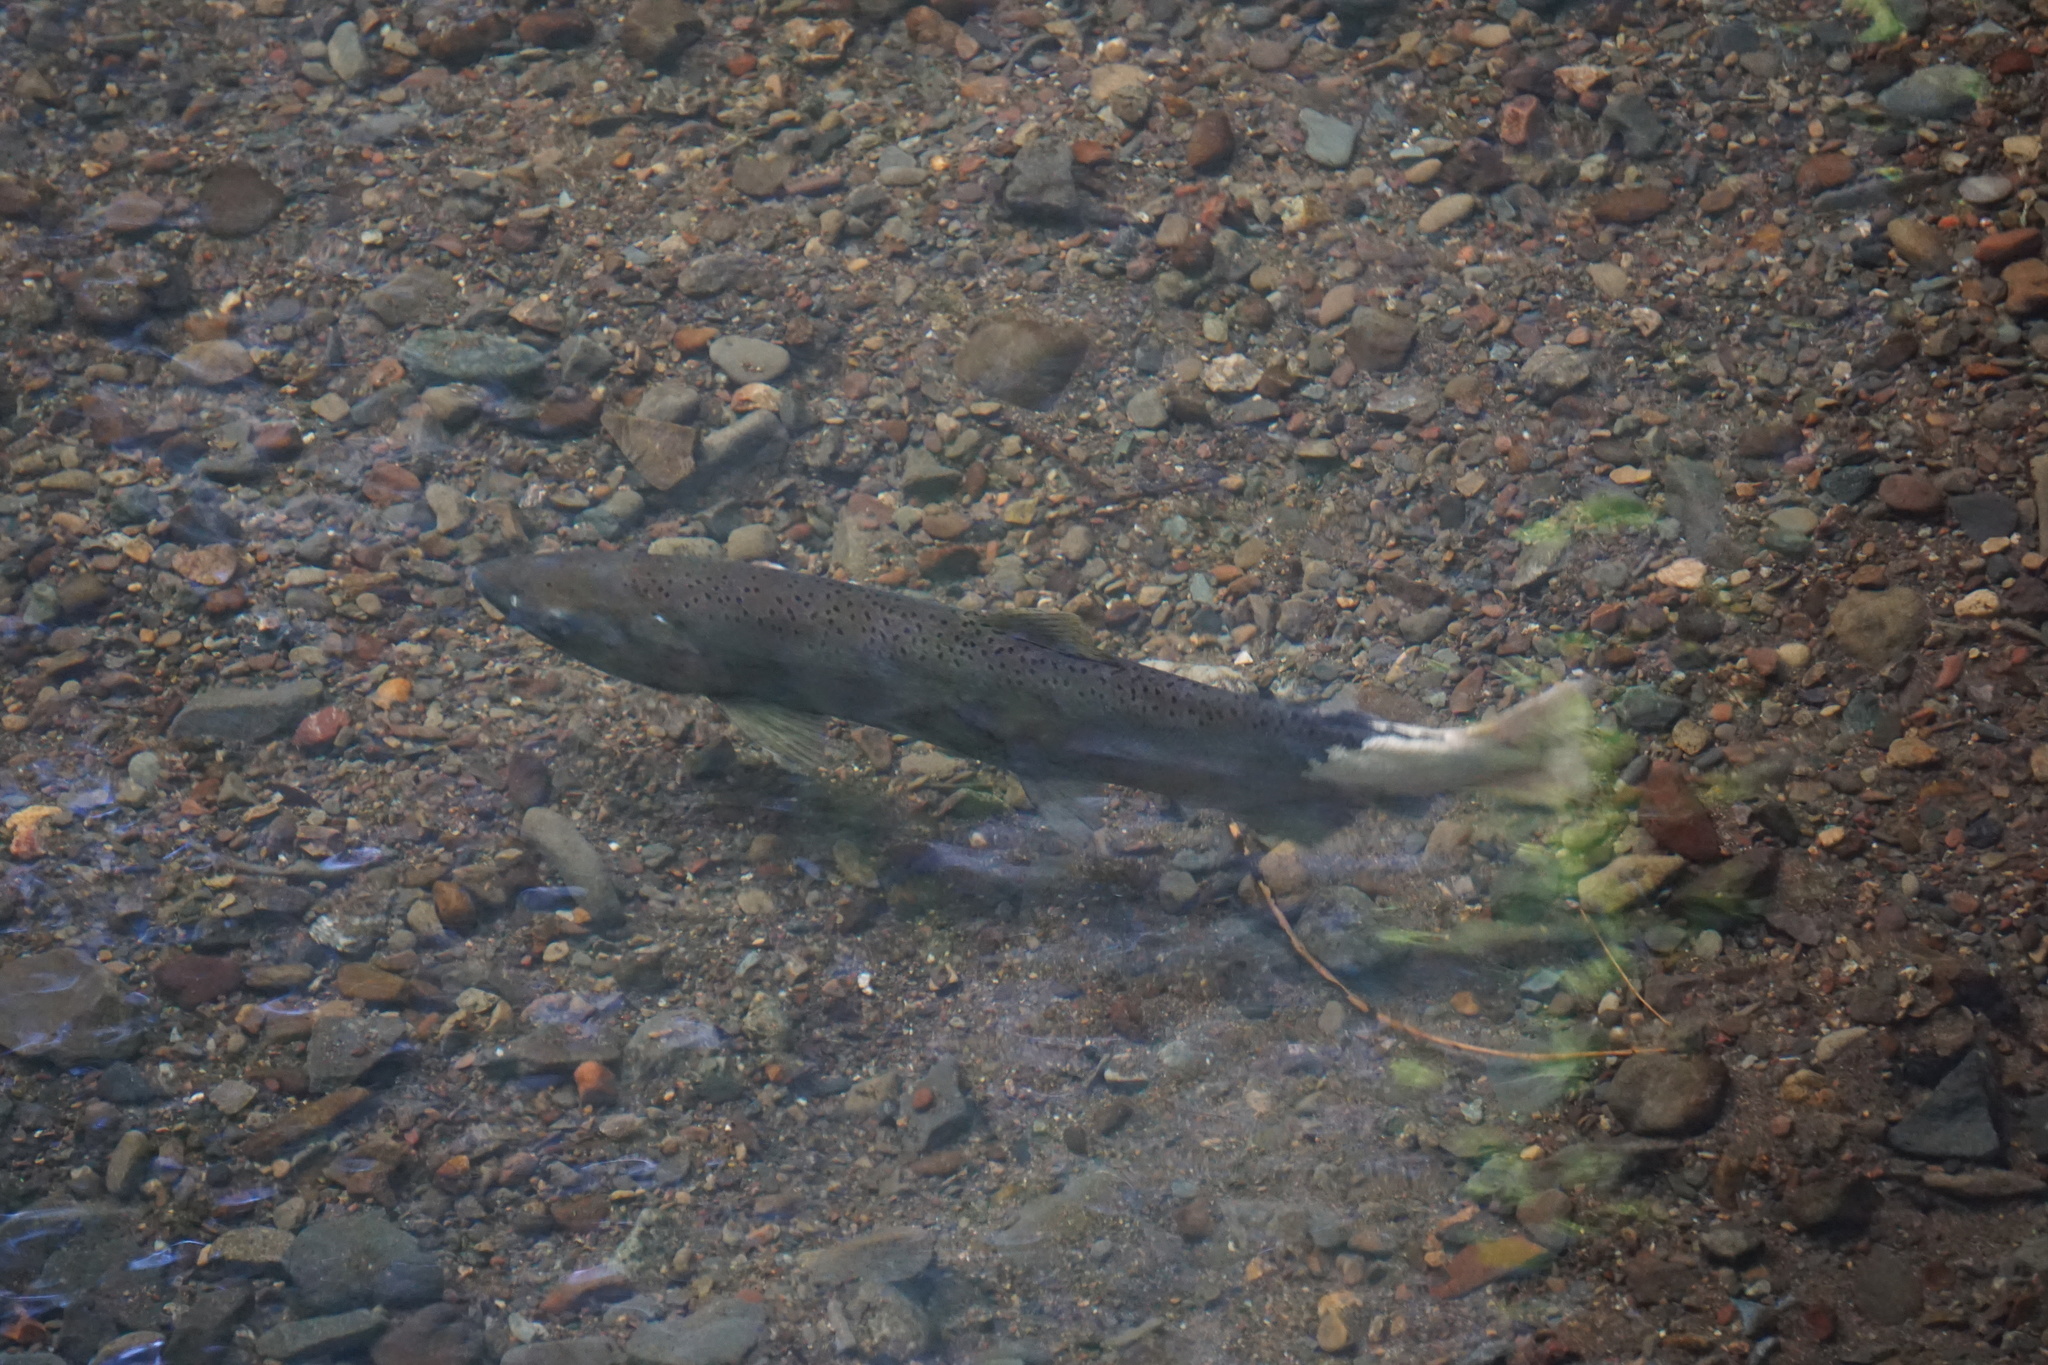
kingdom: Animalia
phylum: Chordata
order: Salmoniformes
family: Salmonidae
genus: Oncorhynchus
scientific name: Oncorhynchus kisutch
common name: Coho salmon
